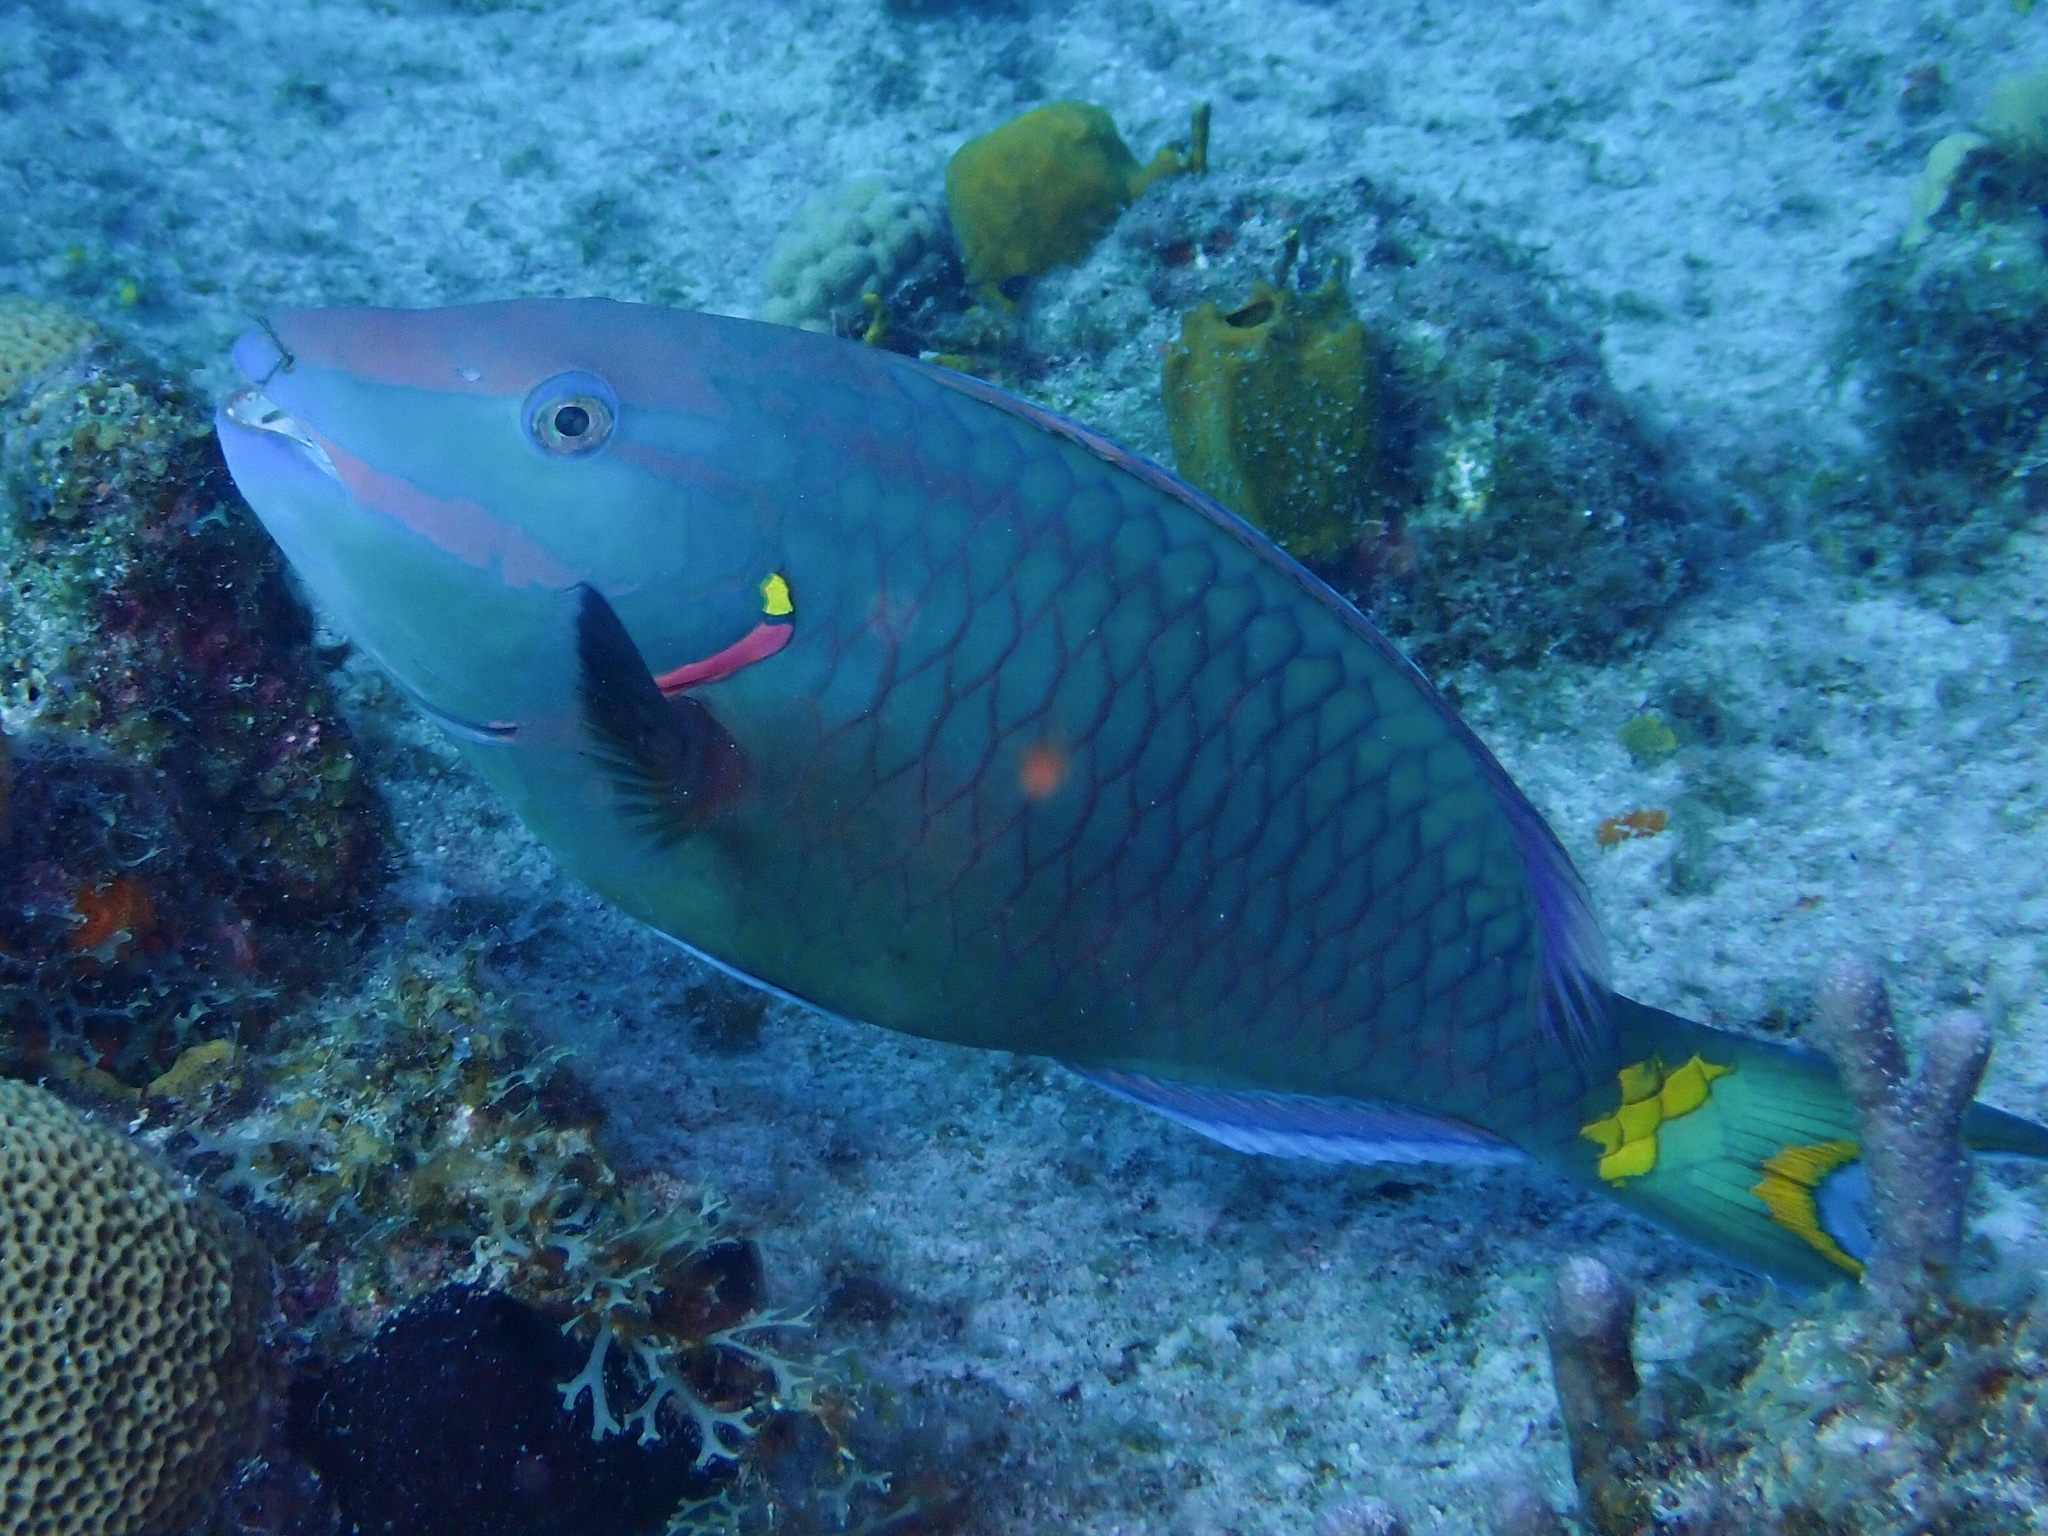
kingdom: Animalia
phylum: Chordata
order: Perciformes
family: Scaridae
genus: Sparisoma
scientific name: Sparisoma viride
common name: Stoplight parrotfish
